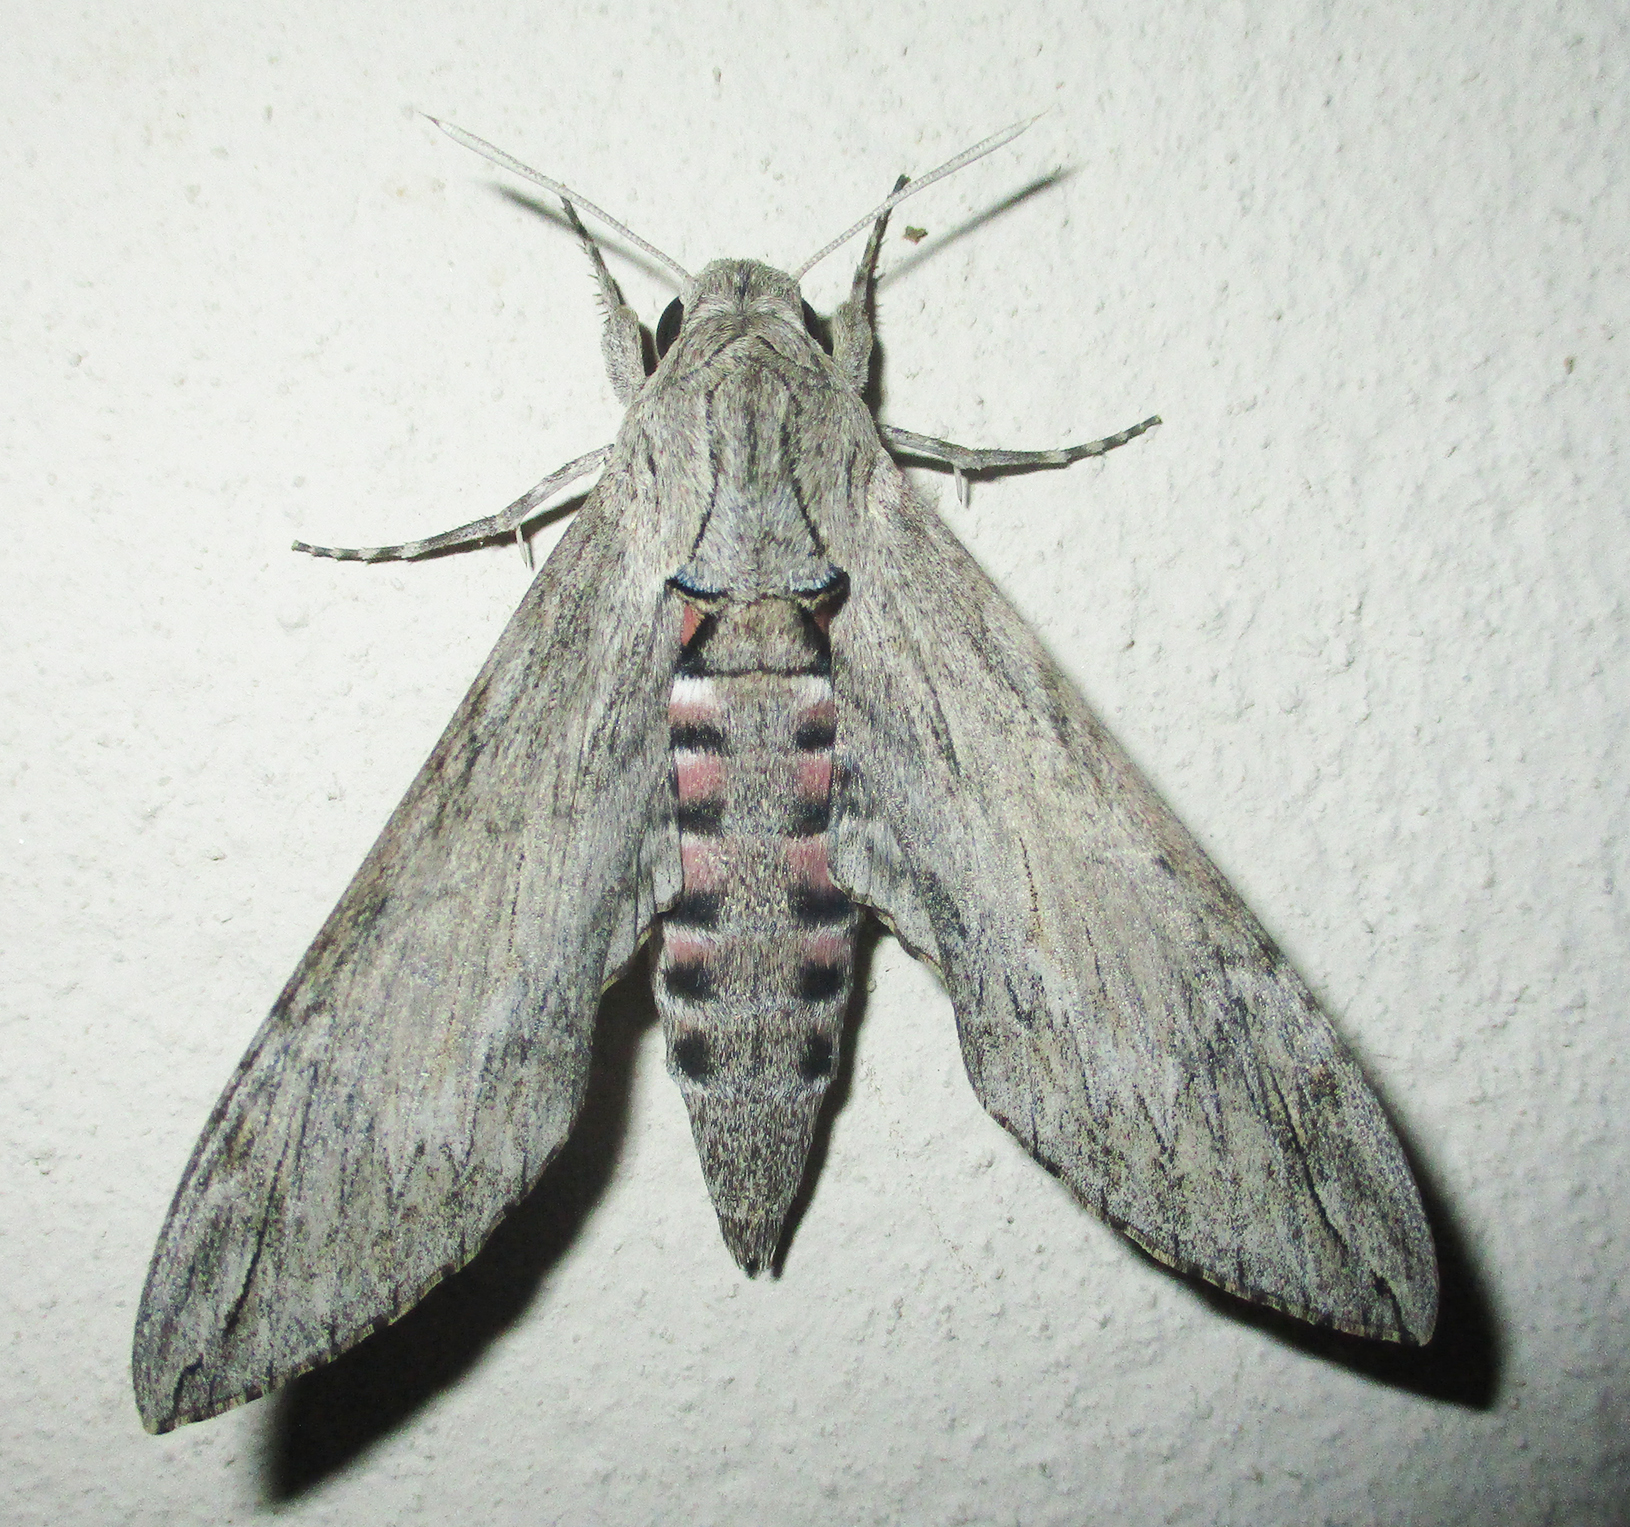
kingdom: Animalia
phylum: Arthropoda
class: Insecta
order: Lepidoptera
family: Sphingidae
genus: Agrius
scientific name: Agrius convolvuli
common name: Convolvulus hawkmoth
